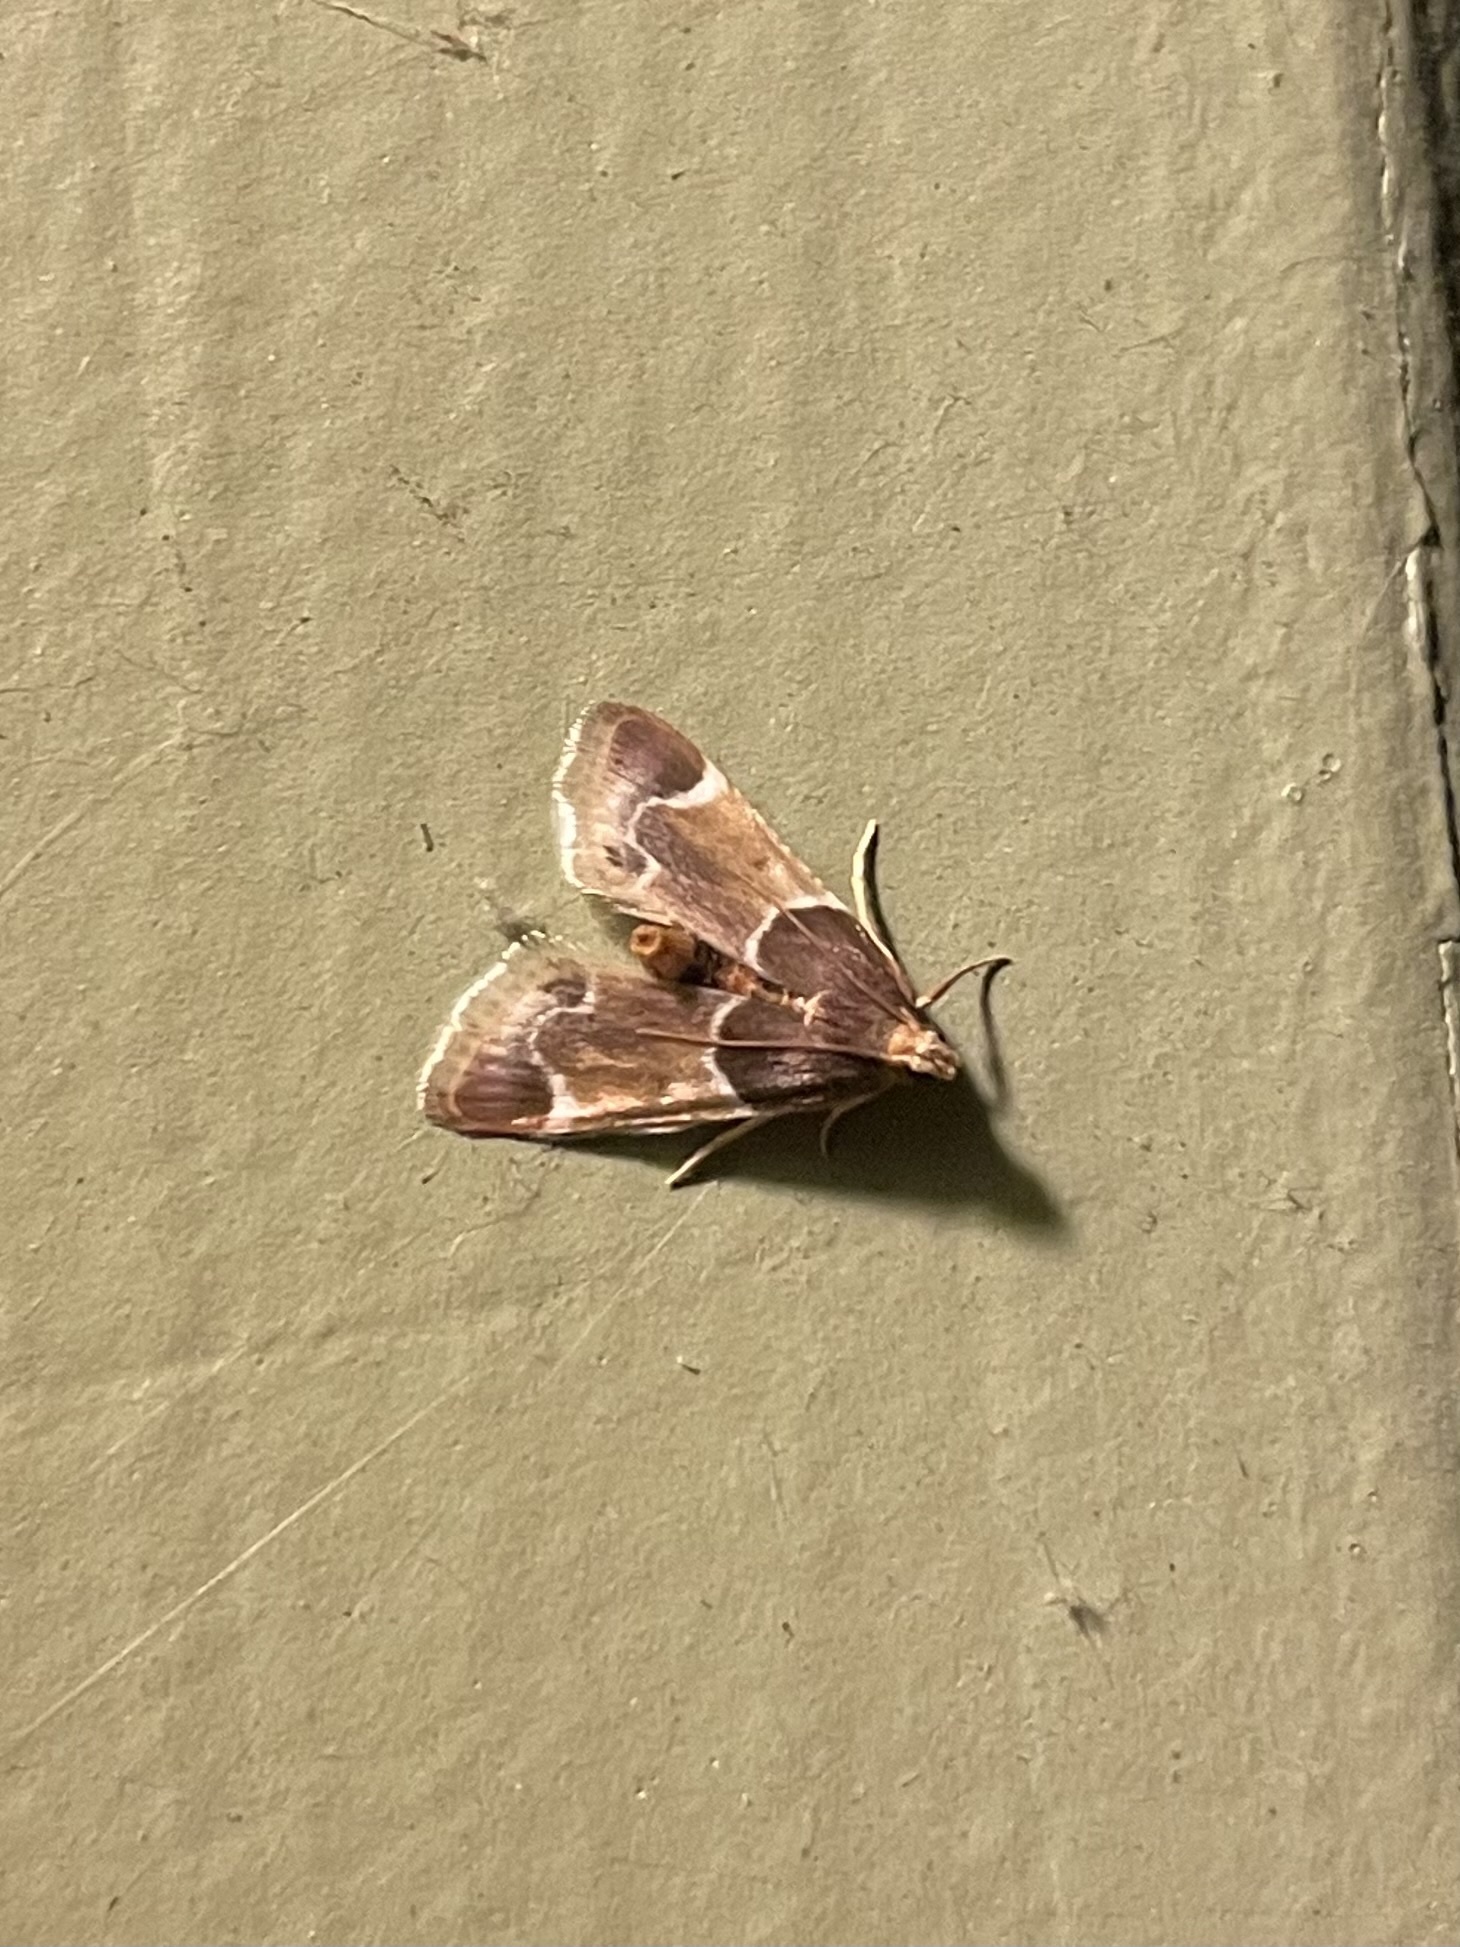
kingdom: Animalia
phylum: Arthropoda
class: Insecta
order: Lepidoptera
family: Pyralidae
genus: Pyralis
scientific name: Pyralis farinalis
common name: Meal moth
